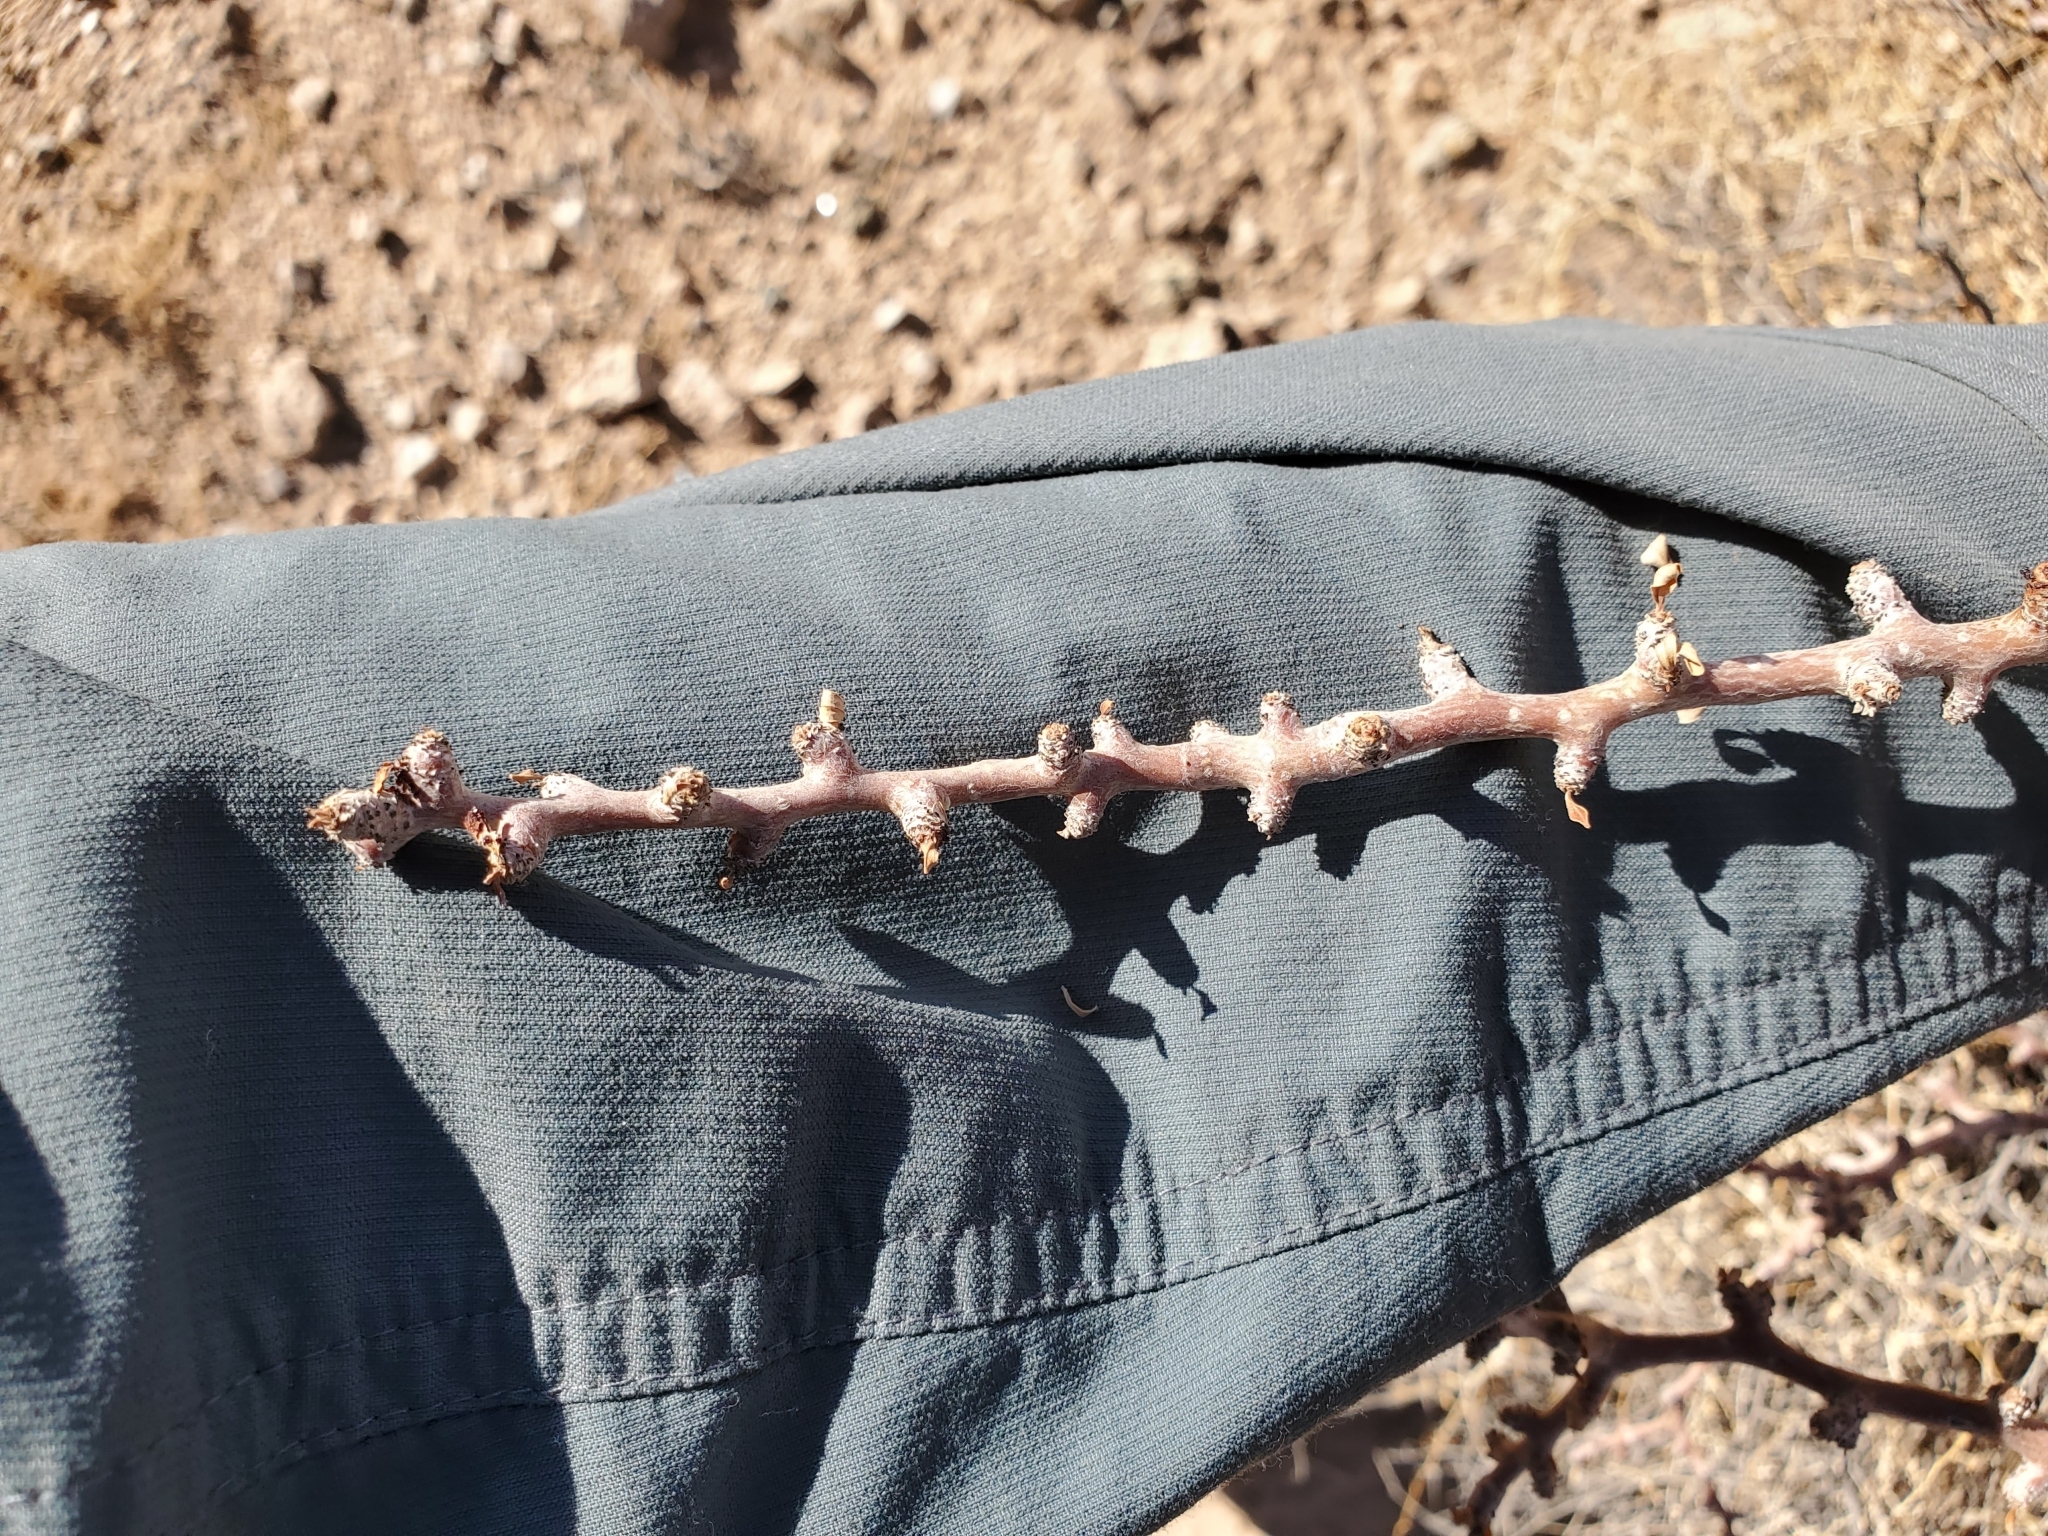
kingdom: Plantae
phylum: Tracheophyta
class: Magnoliopsida
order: Malpighiales
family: Euphorbiaceae
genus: Jatropha
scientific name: Jatropha cuneata
